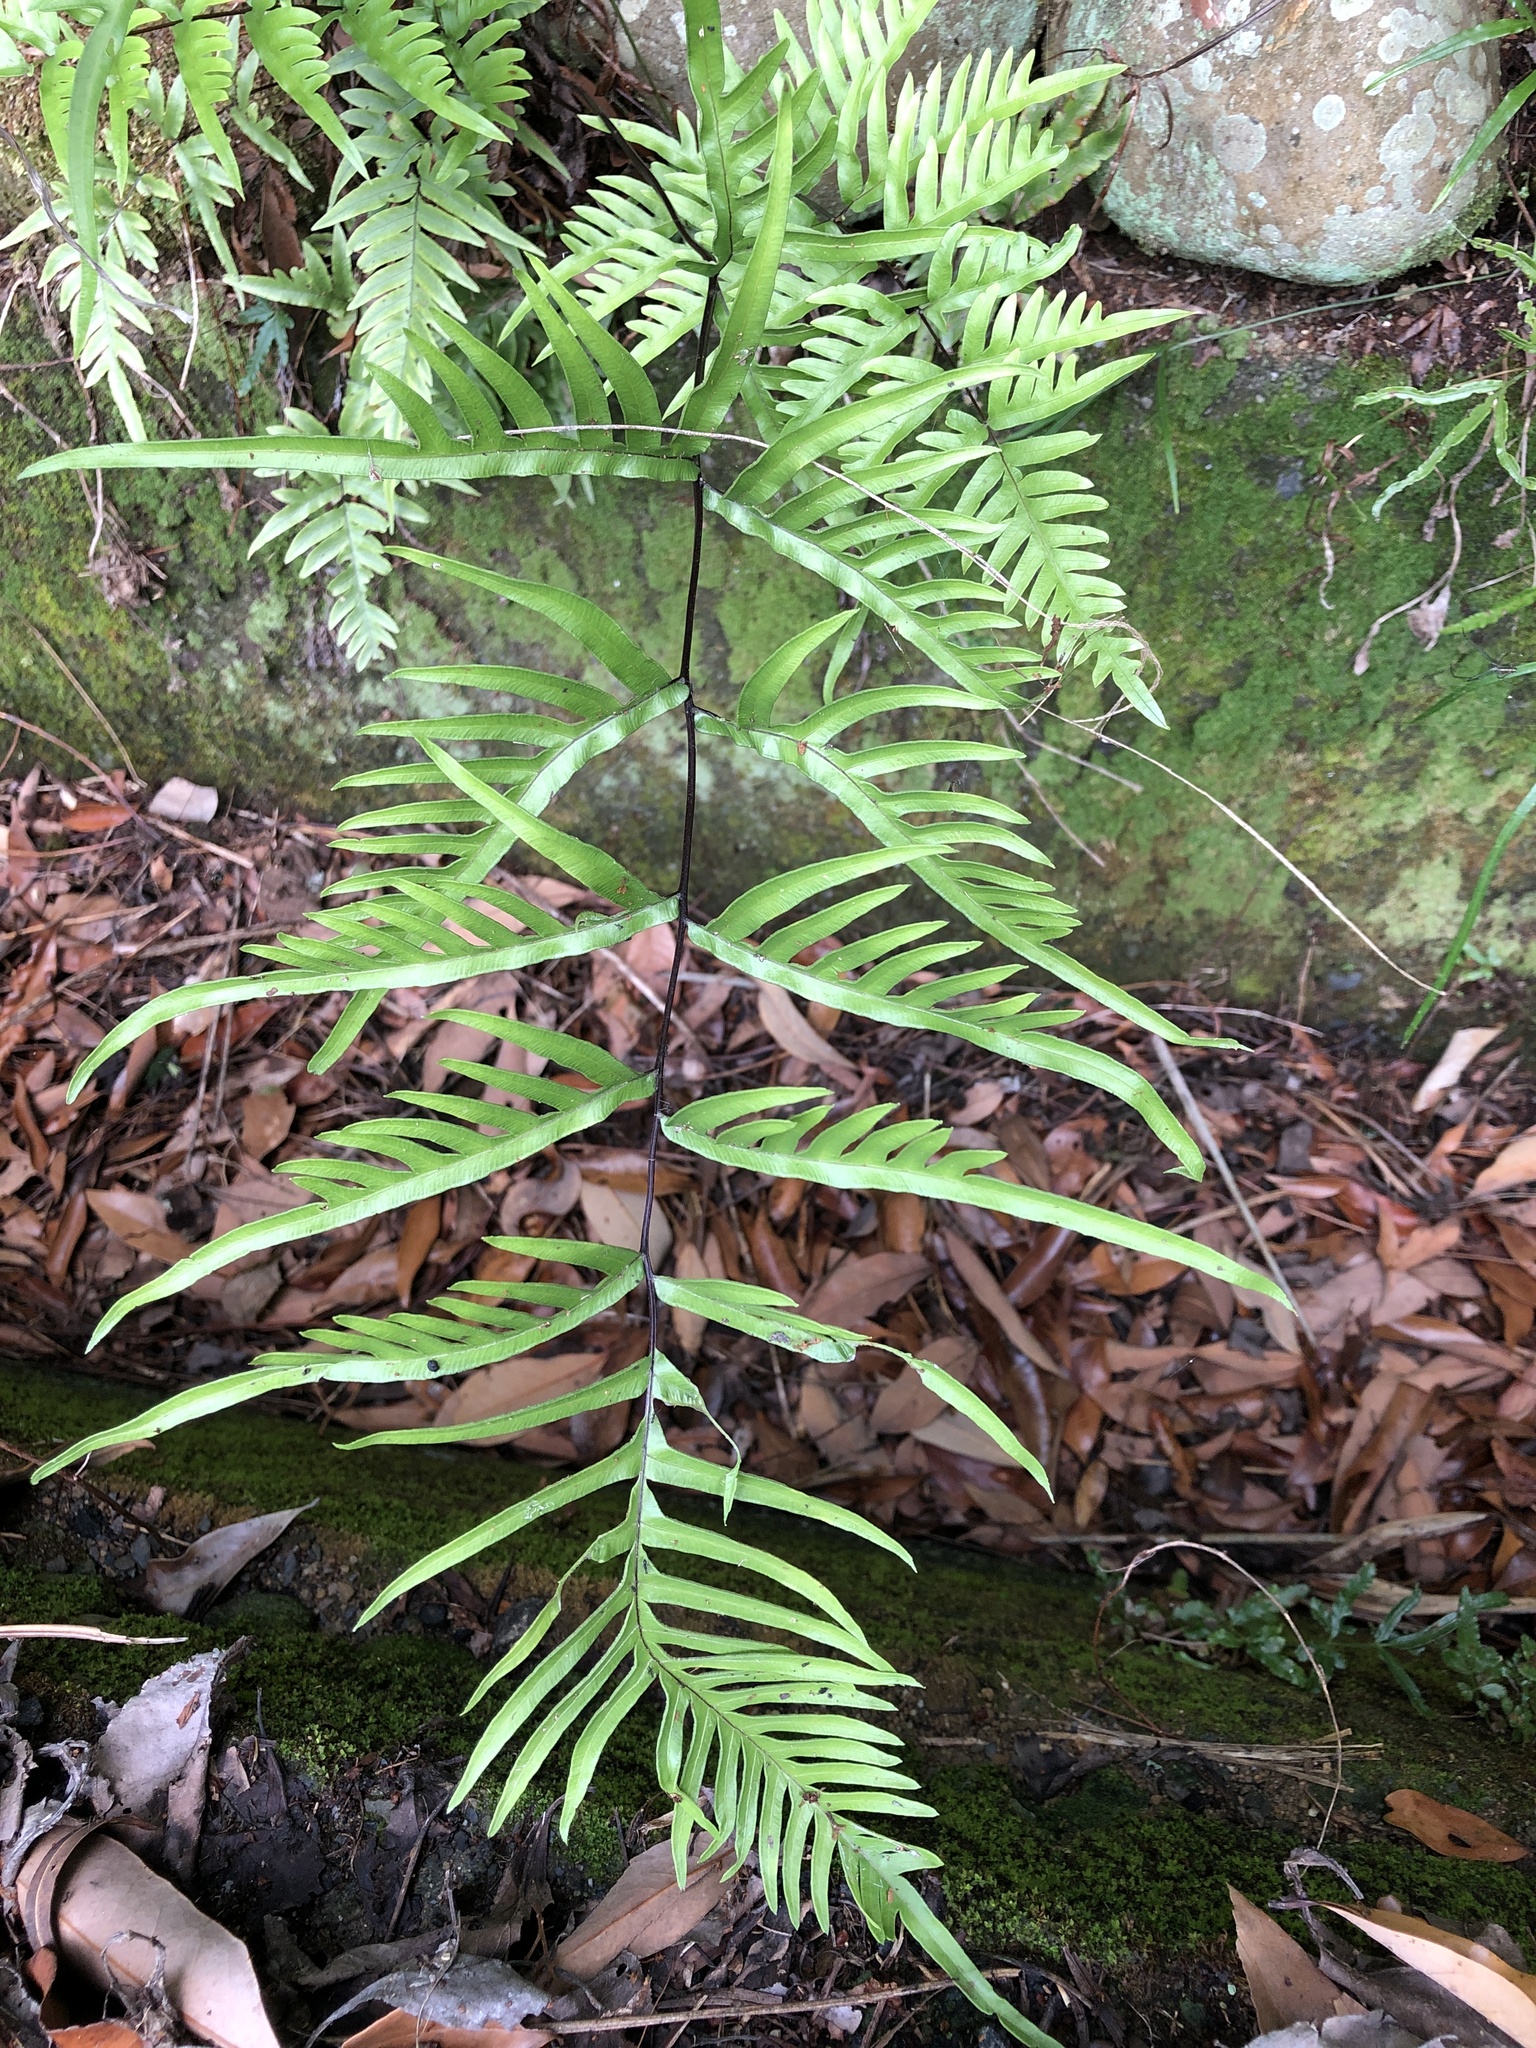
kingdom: Plantae
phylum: Tracheophyta
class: Polypodiopsida
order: Polypodiales
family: Pteridaceae
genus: Pteris
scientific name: Pteris semipinnata
